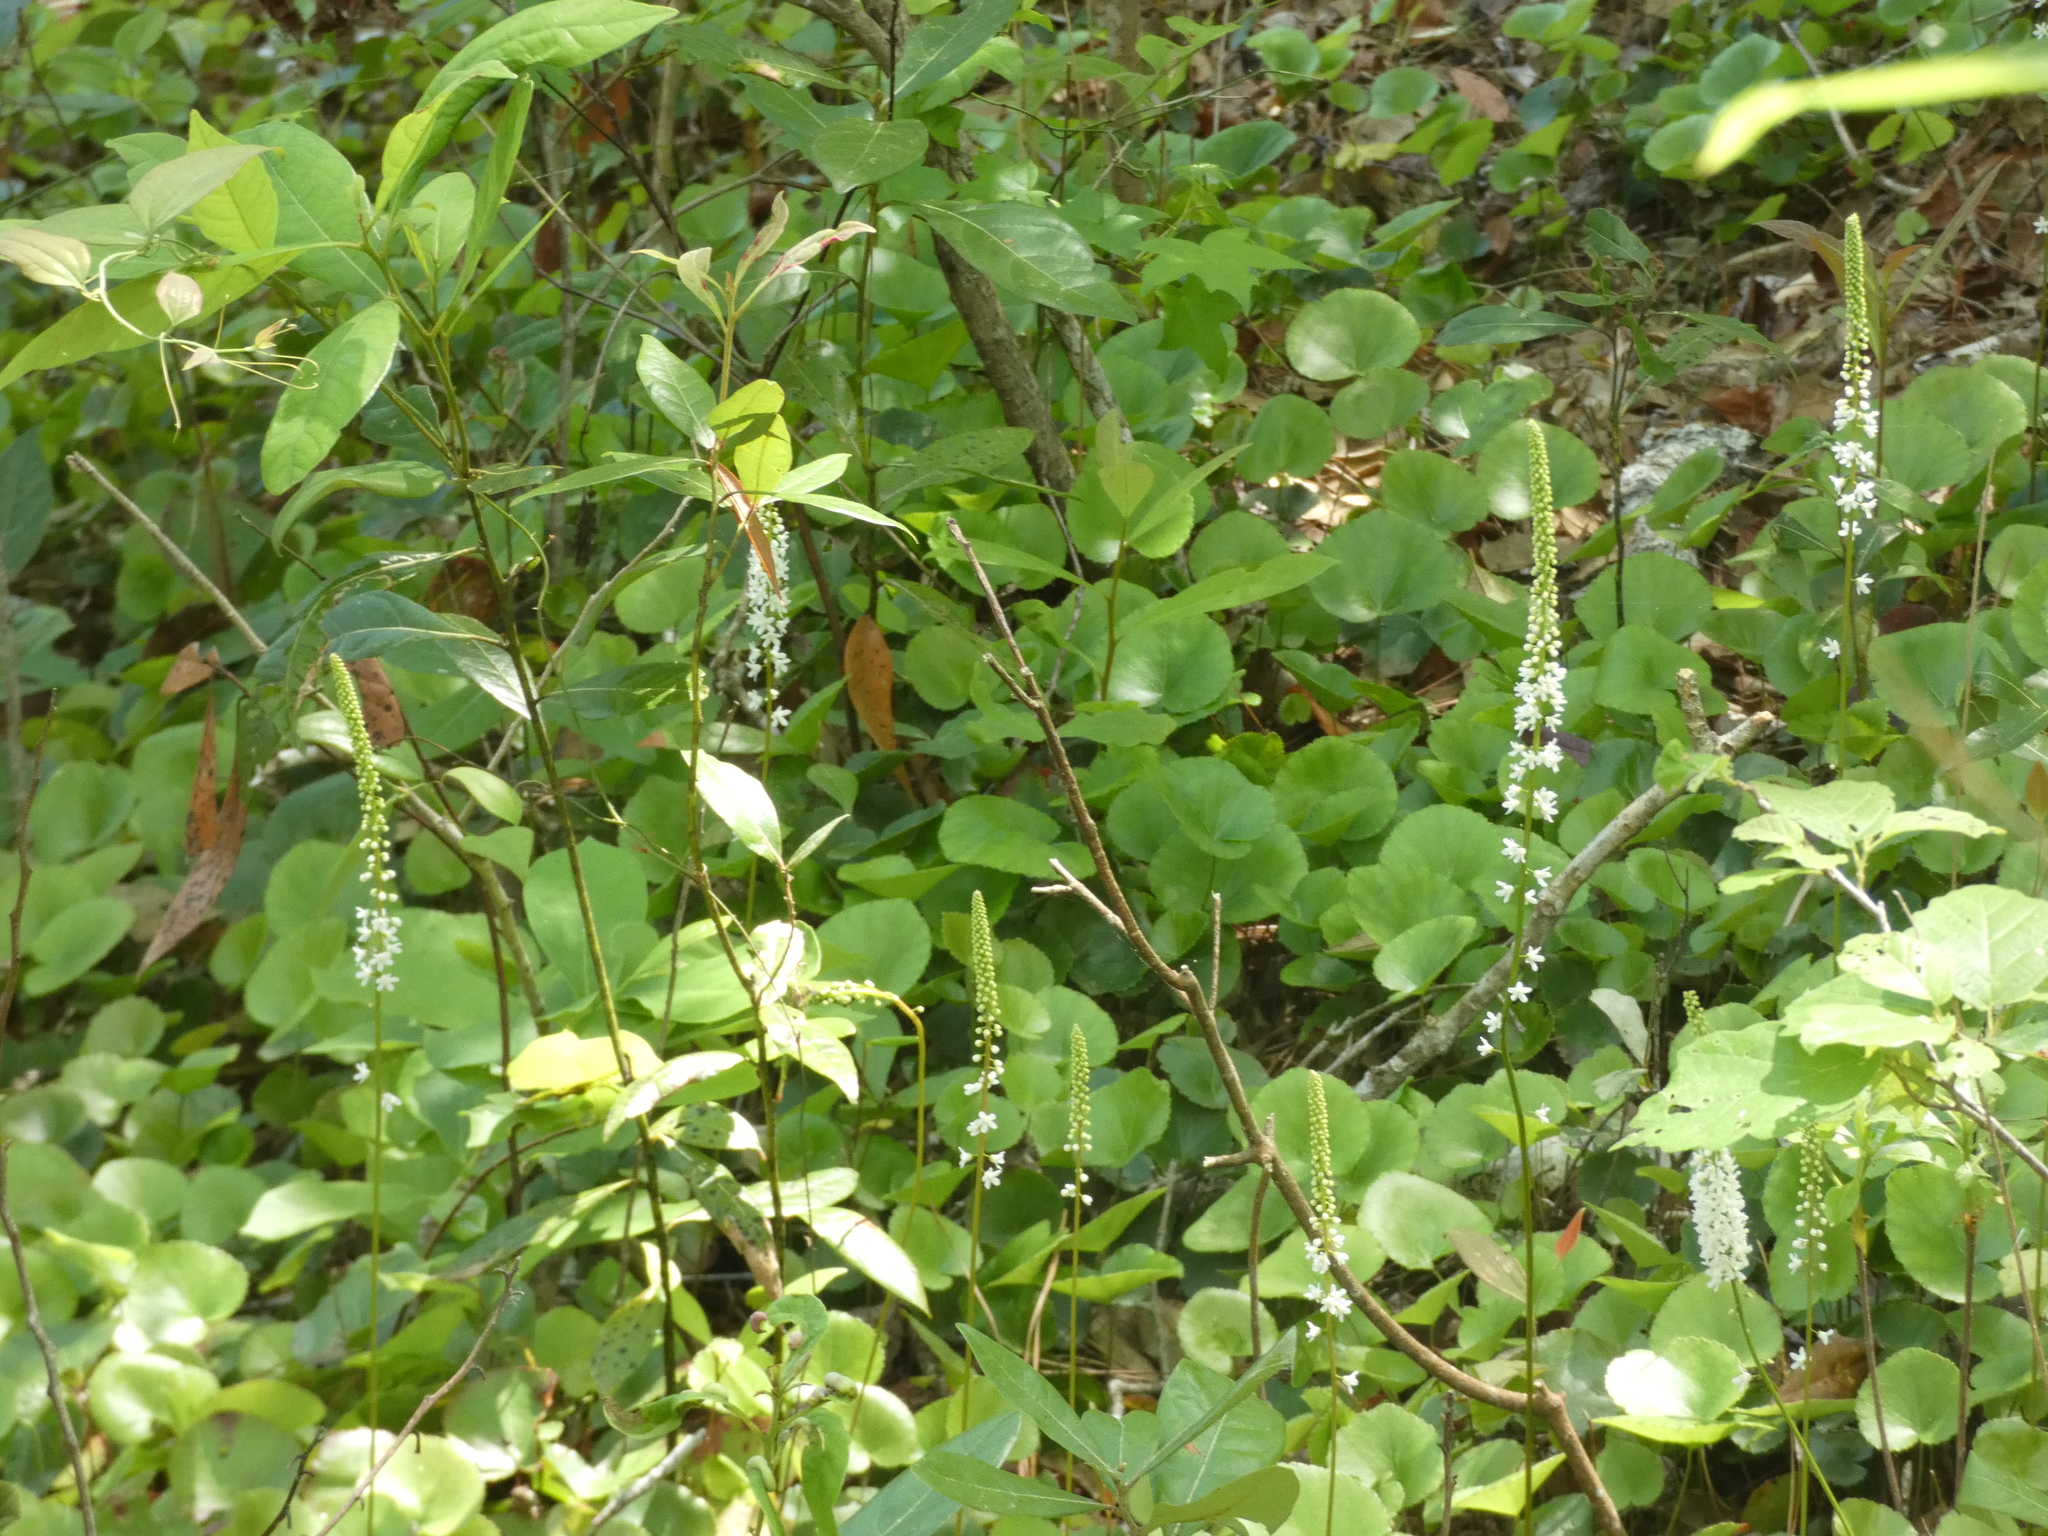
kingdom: Plantae
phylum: Tracheophyta
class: Magnoliopsida
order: Ericales
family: Diapensiaceae
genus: Galax
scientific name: Galax urceolata
